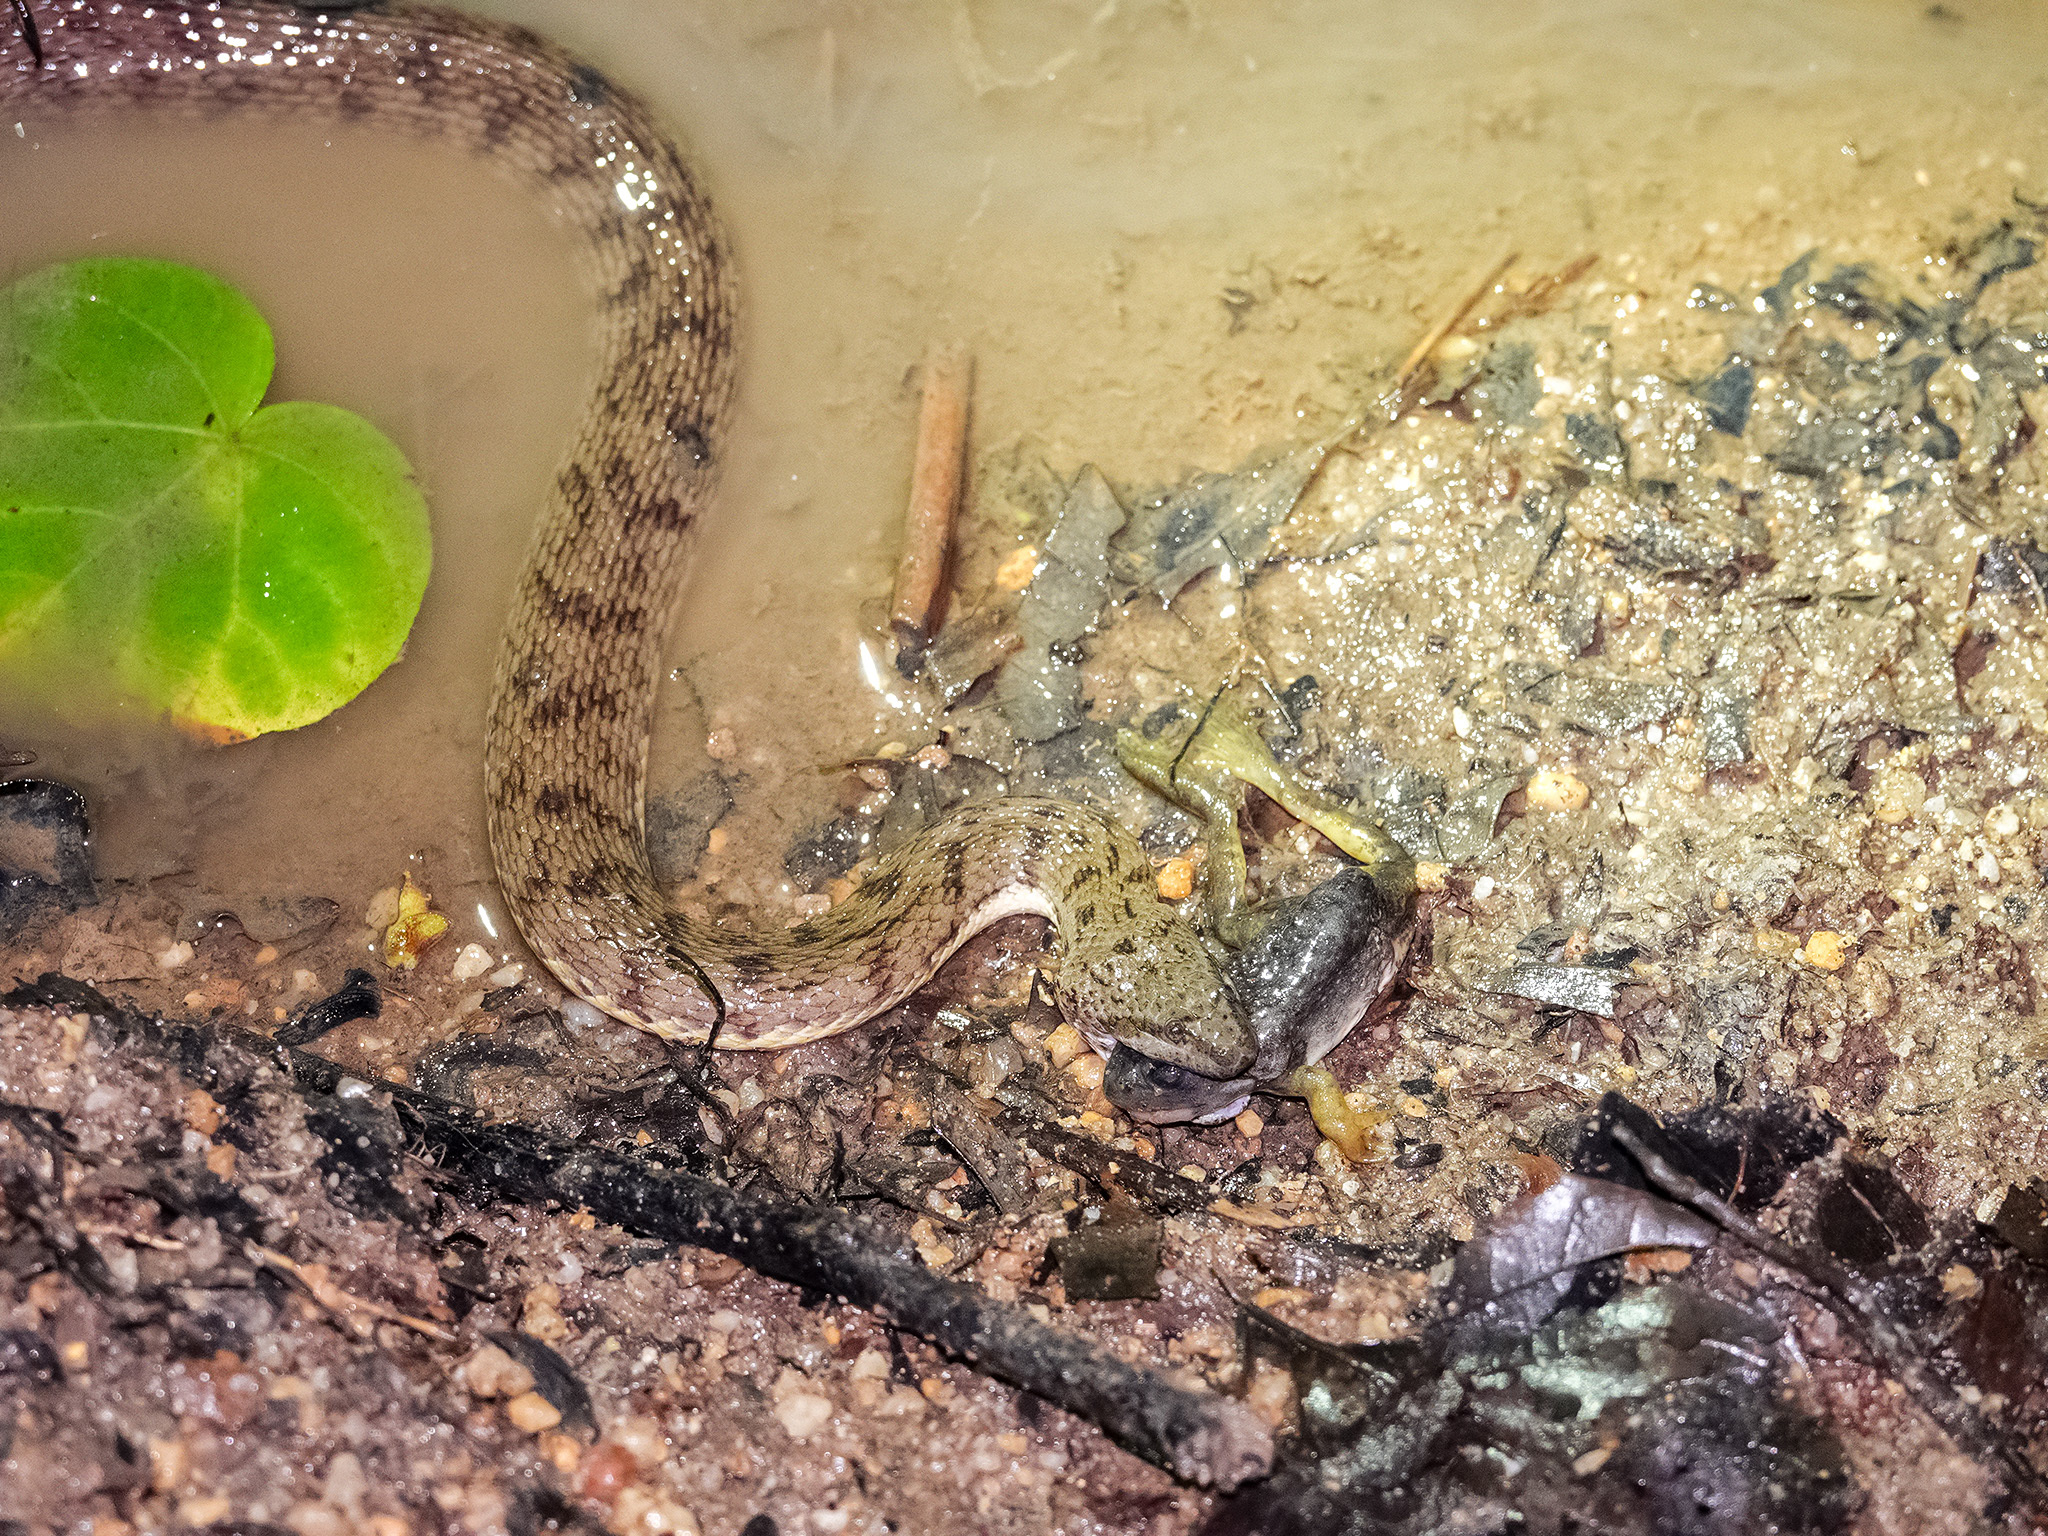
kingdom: Animalia
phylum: Chordata
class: Squamata
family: Homalopsidae
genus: Cerberus
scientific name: Cerberus schneiderii
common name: Southeast asian bockadam
